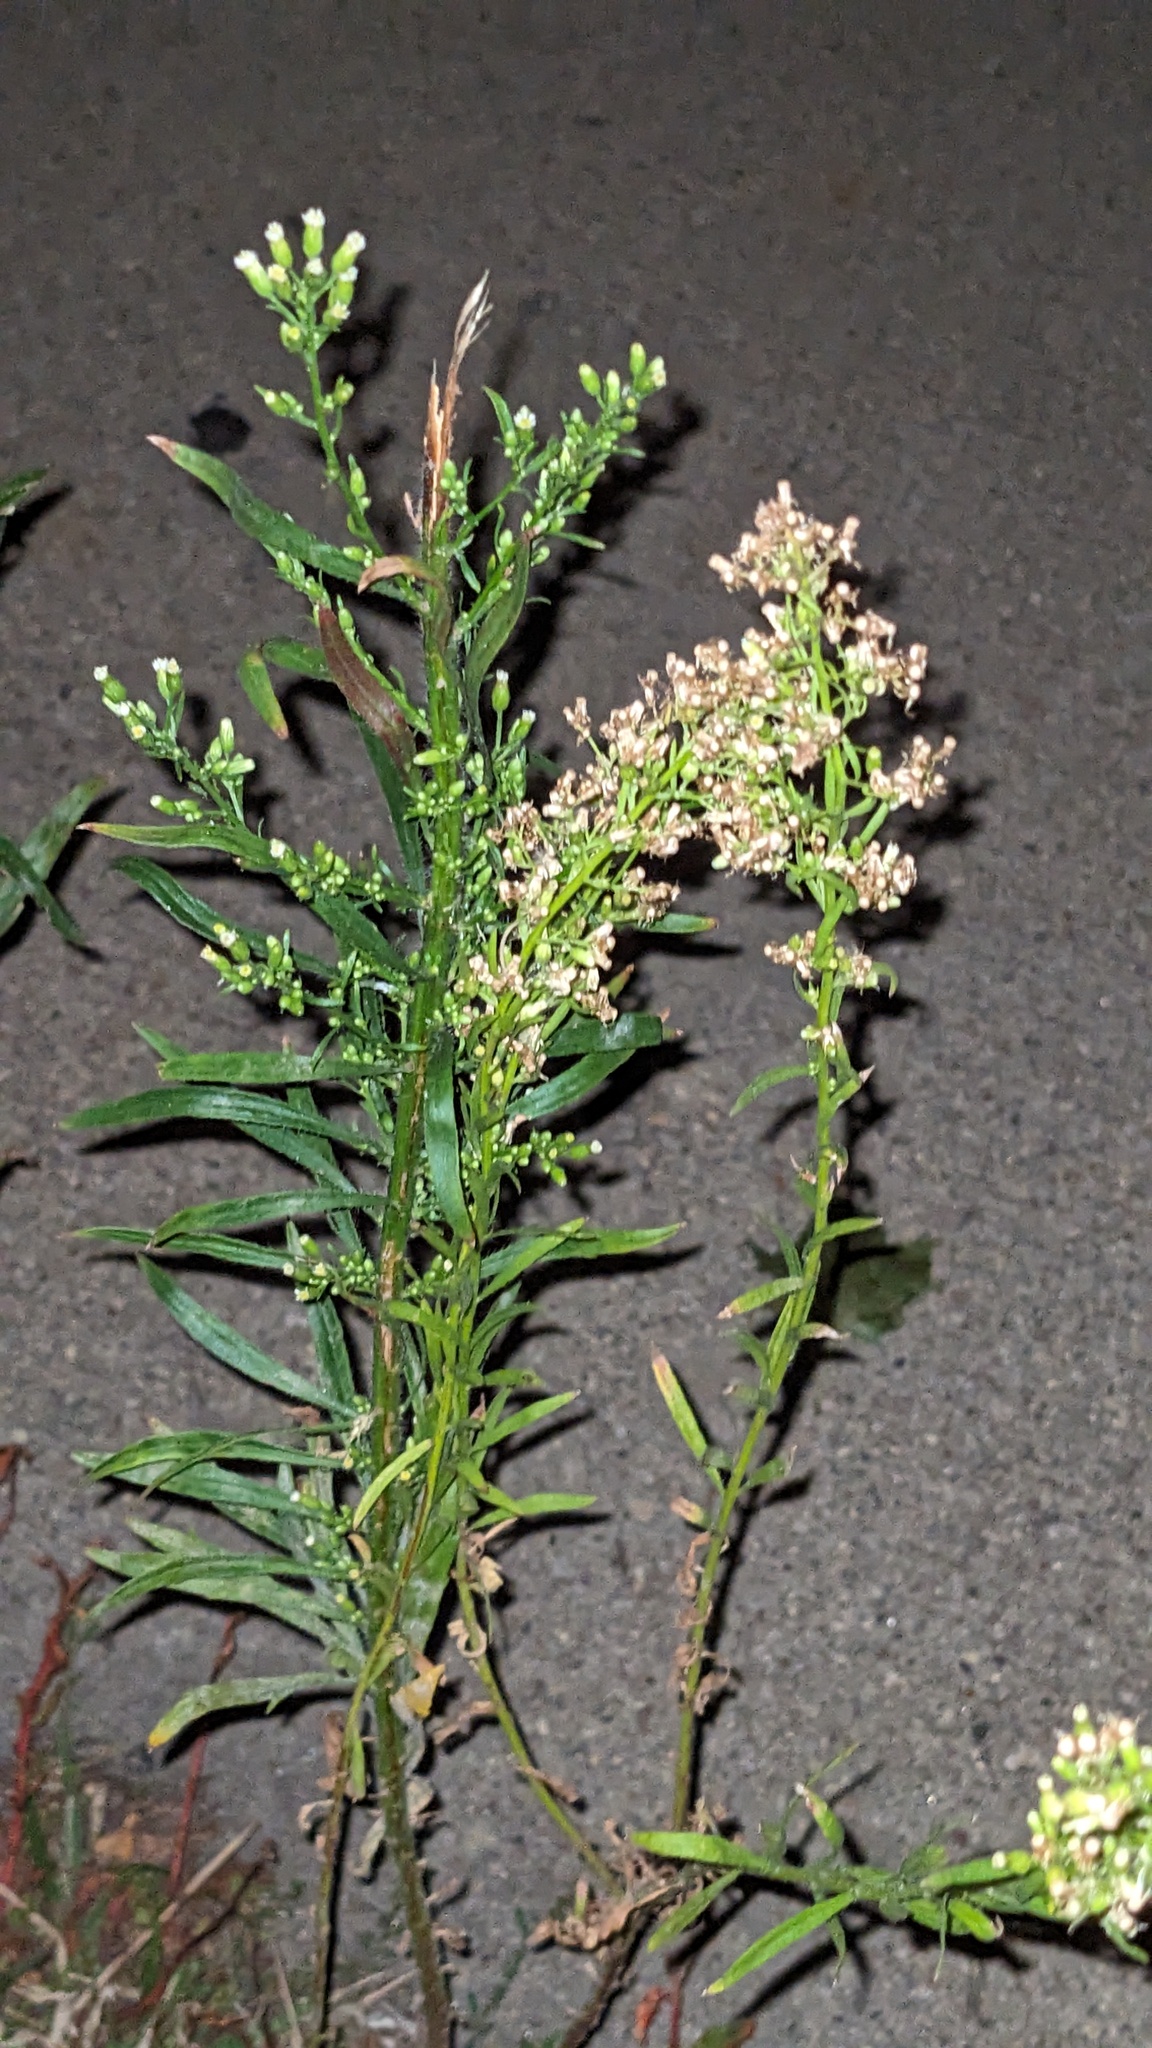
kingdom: Plantae
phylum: Tracheophyta
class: Magnoliopsida
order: Asterales
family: Asteraceae
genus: Erigeron
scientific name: Erigeron canadensis
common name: Canadian fleabane
